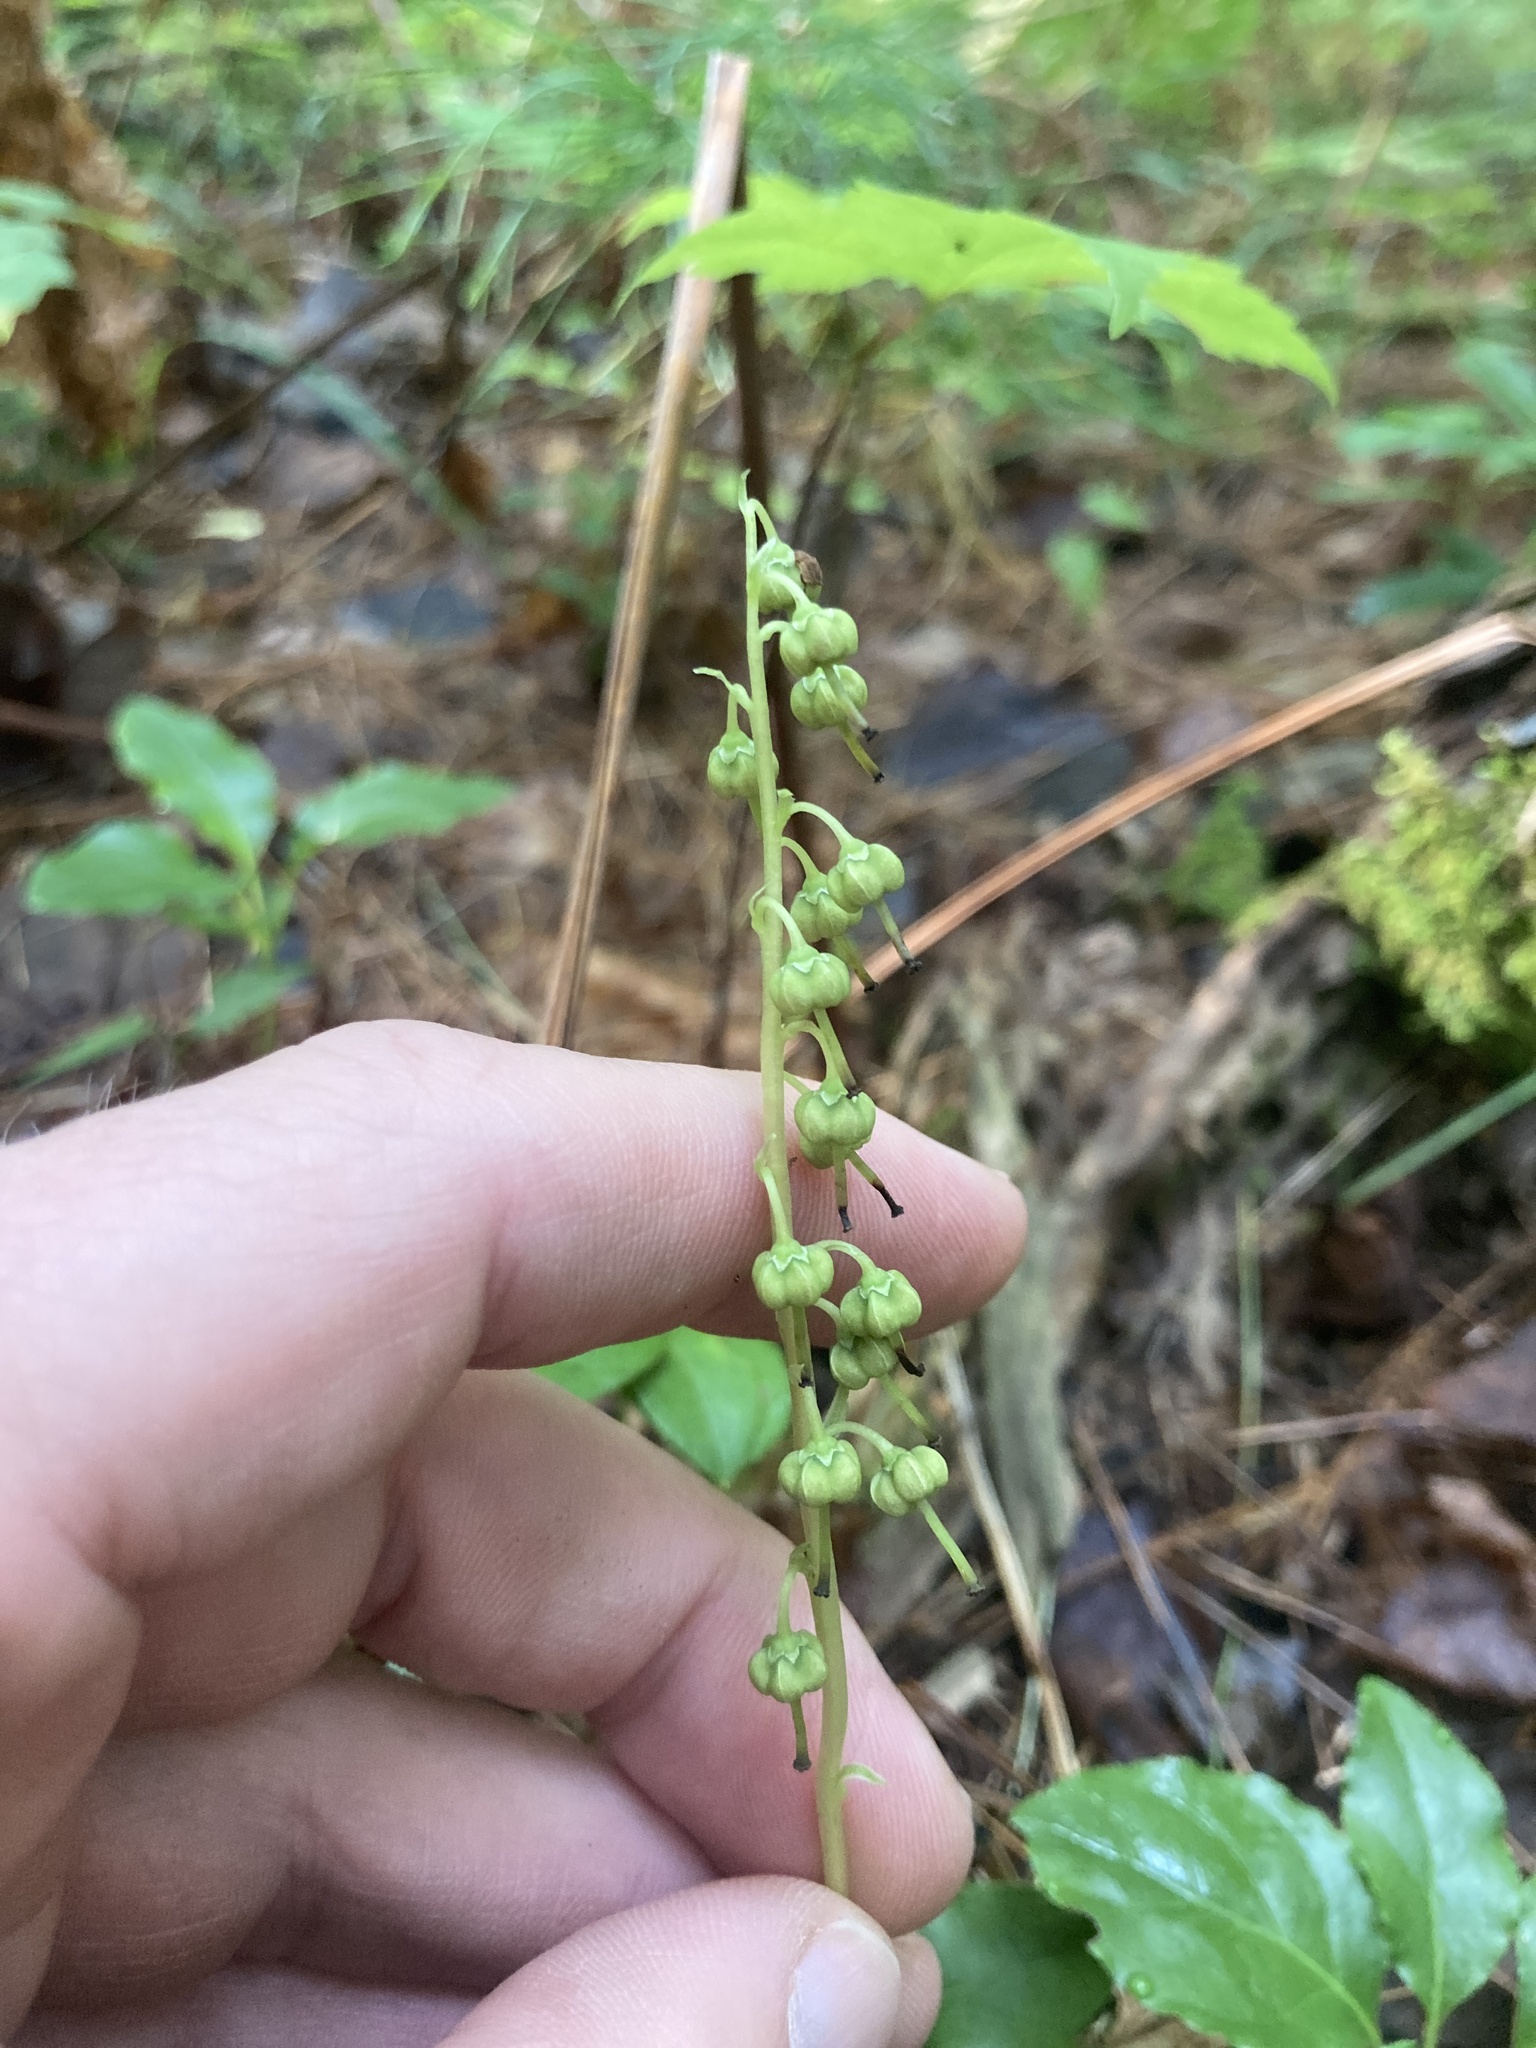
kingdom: Plantae
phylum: Tracheophyta
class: Magnoliopsida
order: Ericales
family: Ericaceae
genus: Orthilia
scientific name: Orthilia secunda
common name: One-sided orthilia
